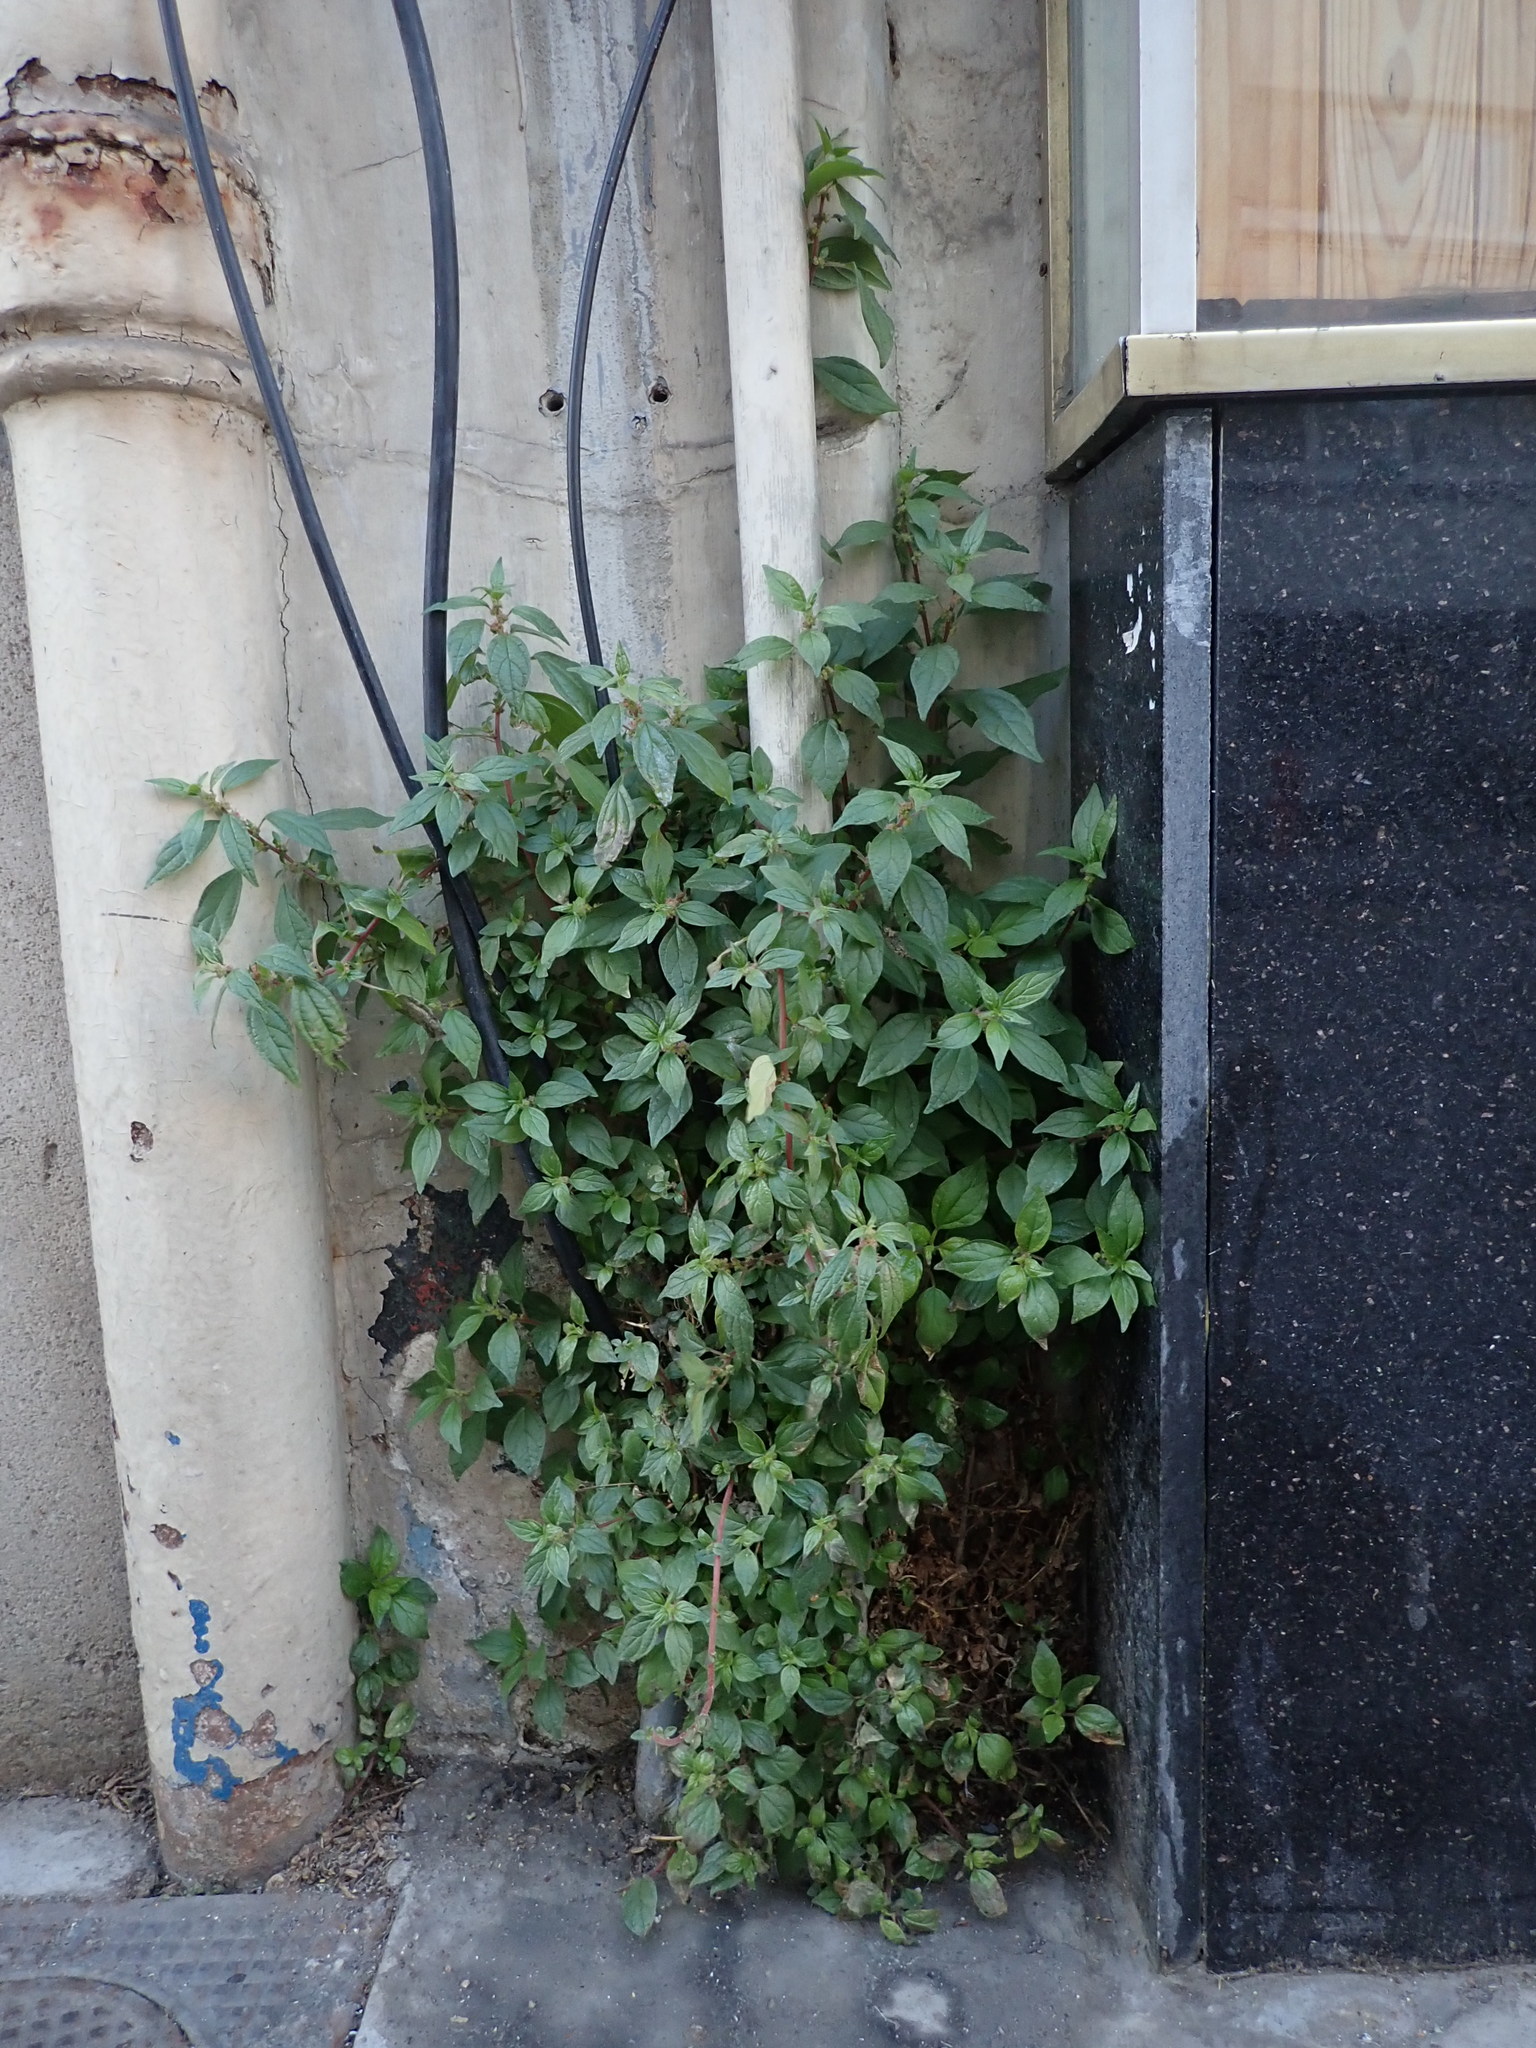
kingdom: Plantae
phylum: Tracheophyta
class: Magnoliopsida
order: Rosales
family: Urticaceae
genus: Parietaria
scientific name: Parietaria judaica
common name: Pellitory-of-the-wall
